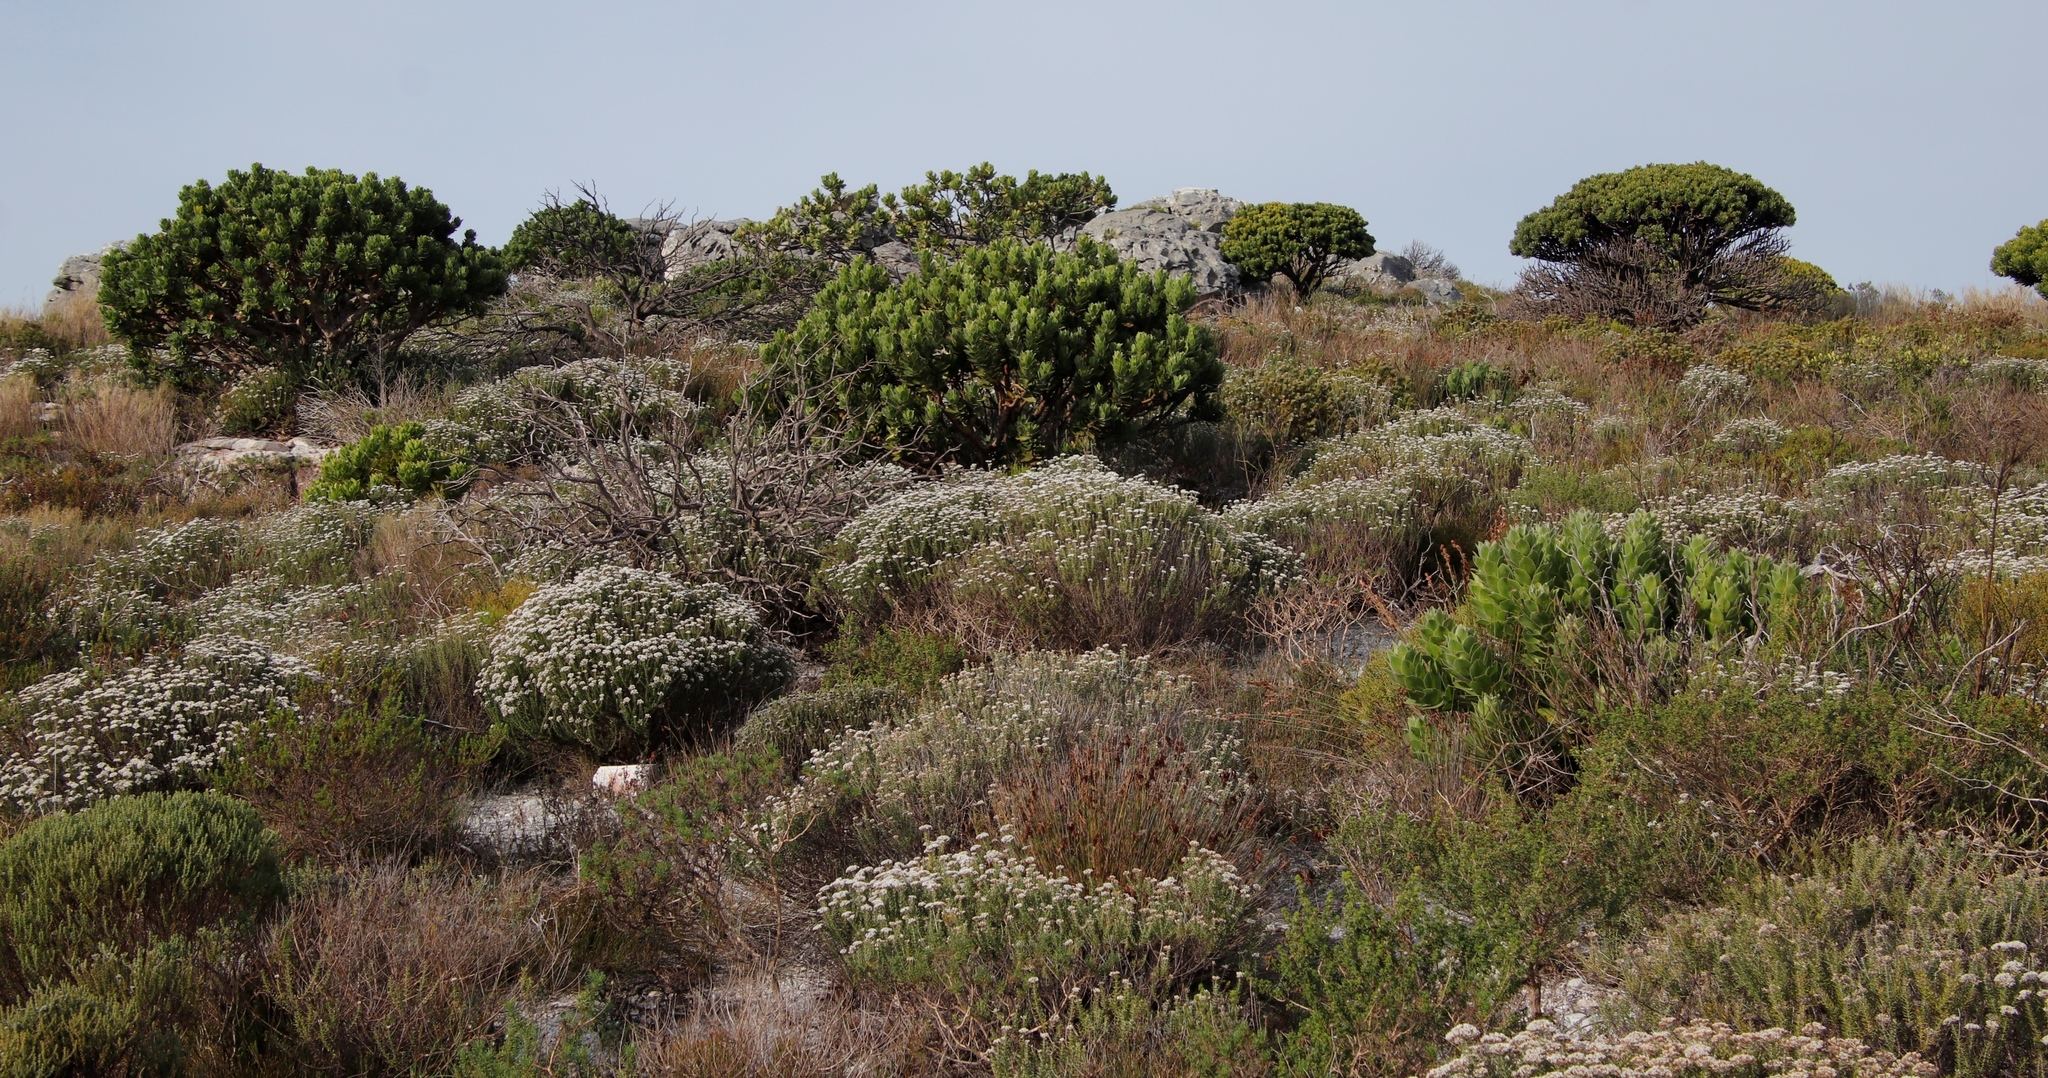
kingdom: Plantae
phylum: Tracheophyta
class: Magnoliopsida
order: Proteales
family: Proteaceae
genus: Leucospermum
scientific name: Leucospermum conocarpodendron
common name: Tree pincushion
